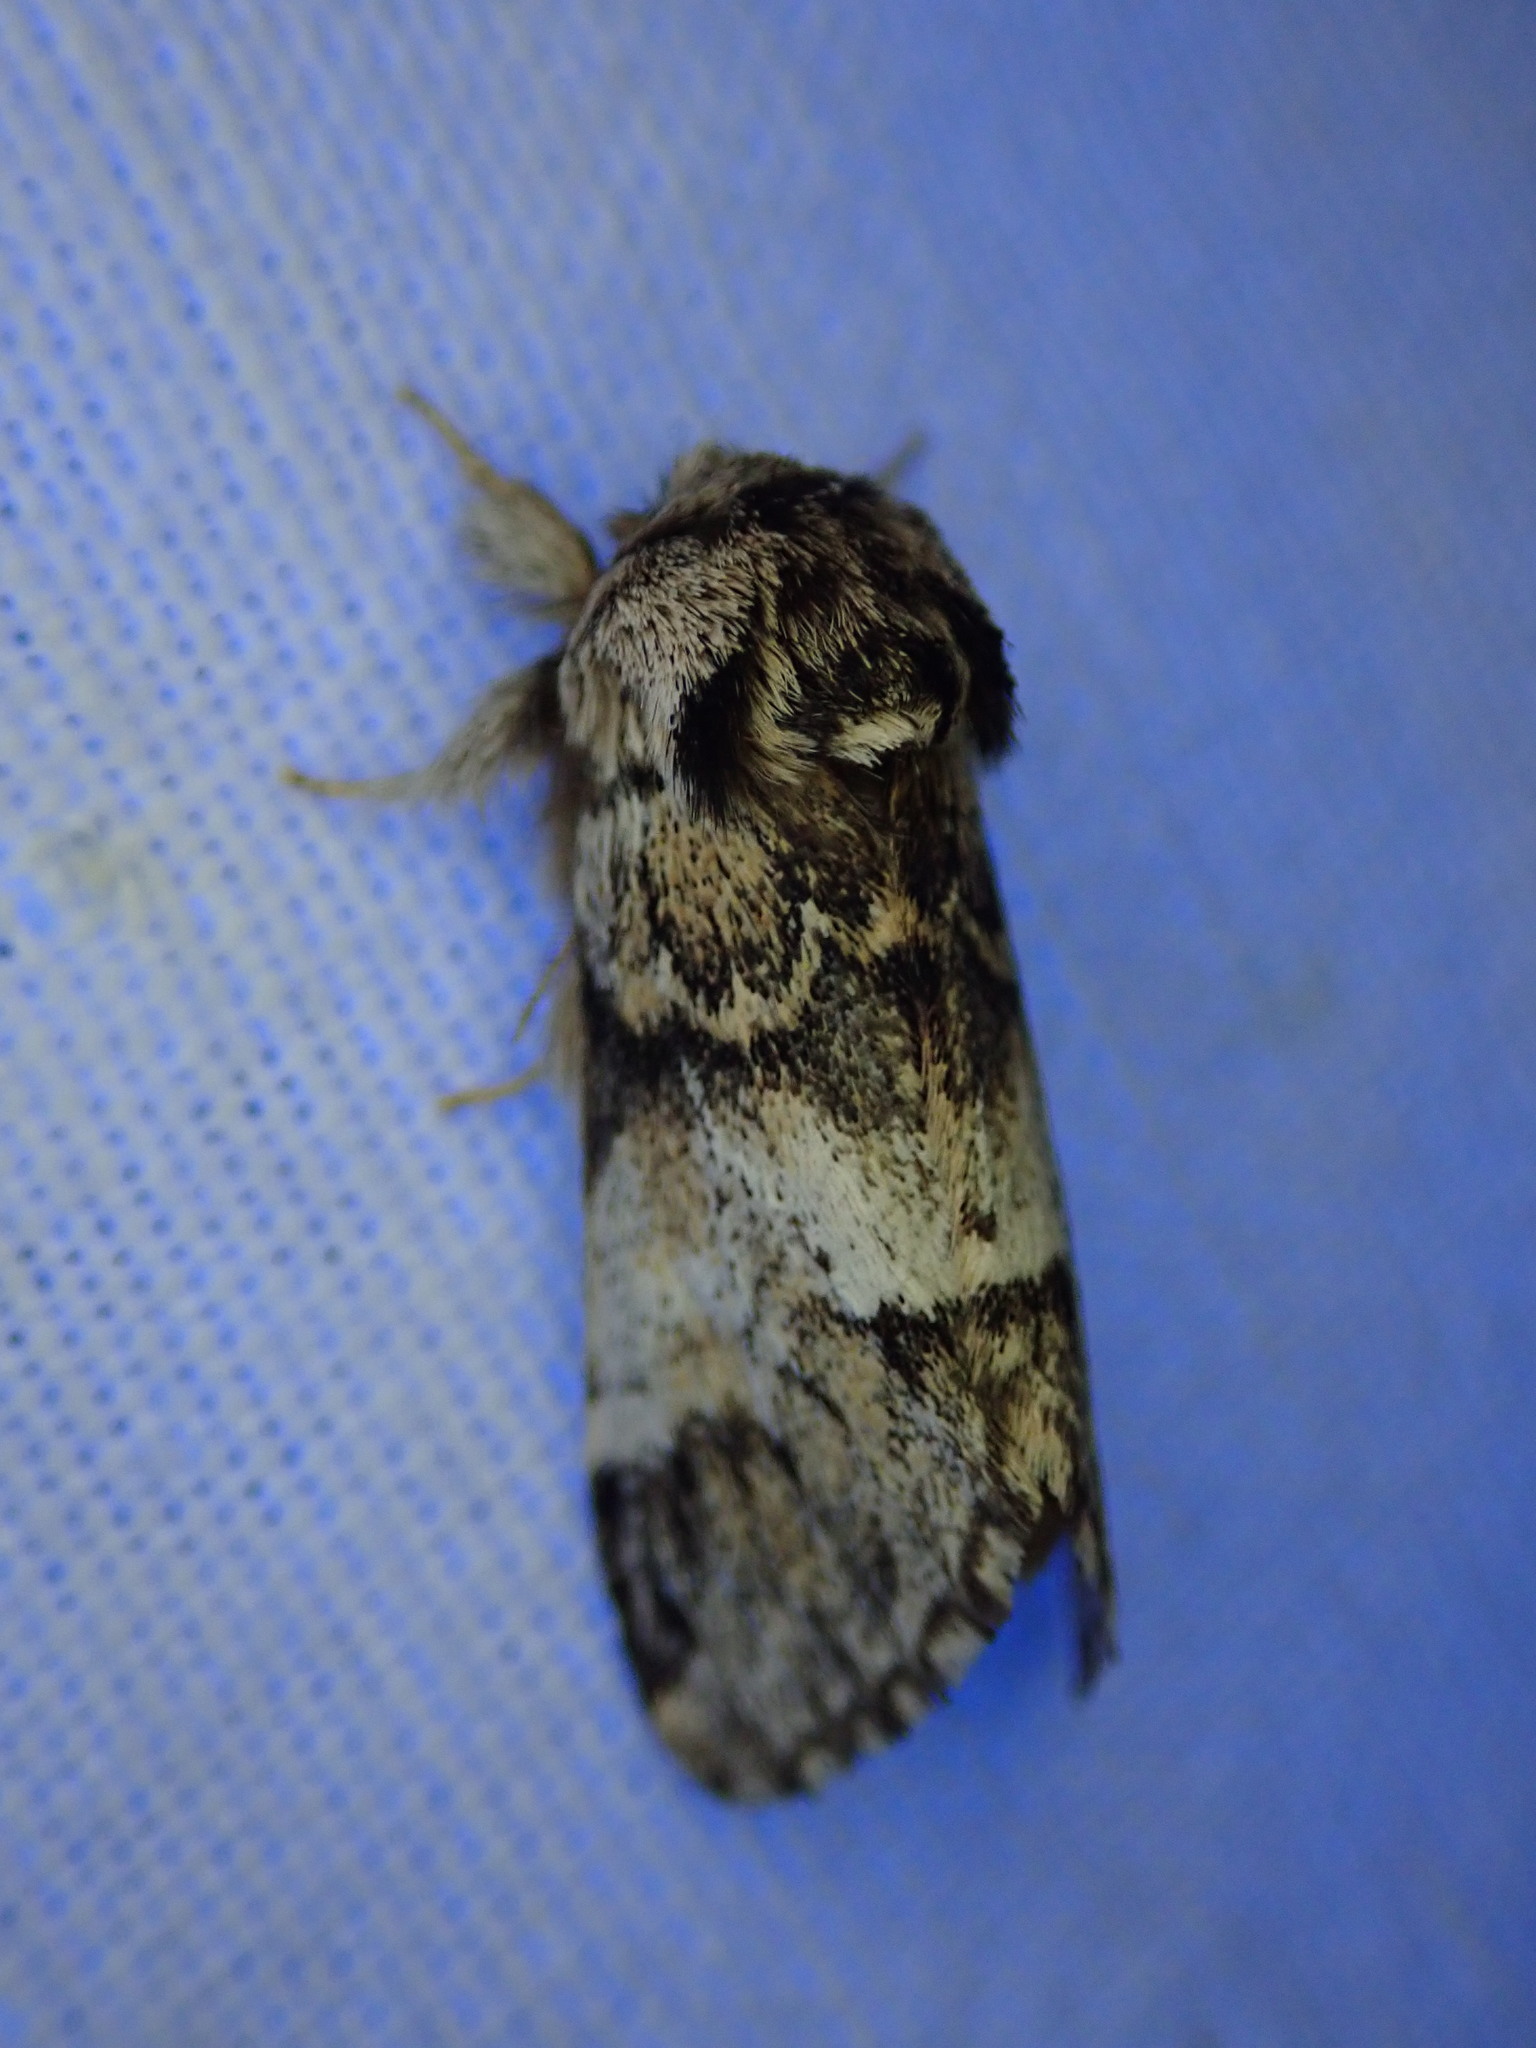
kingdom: Animalia
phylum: Arthropoda
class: Insecta
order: Lepidoptera
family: Notodontidae
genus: Drymonia
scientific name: Drymonia dodonaea
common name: Marbled brown
